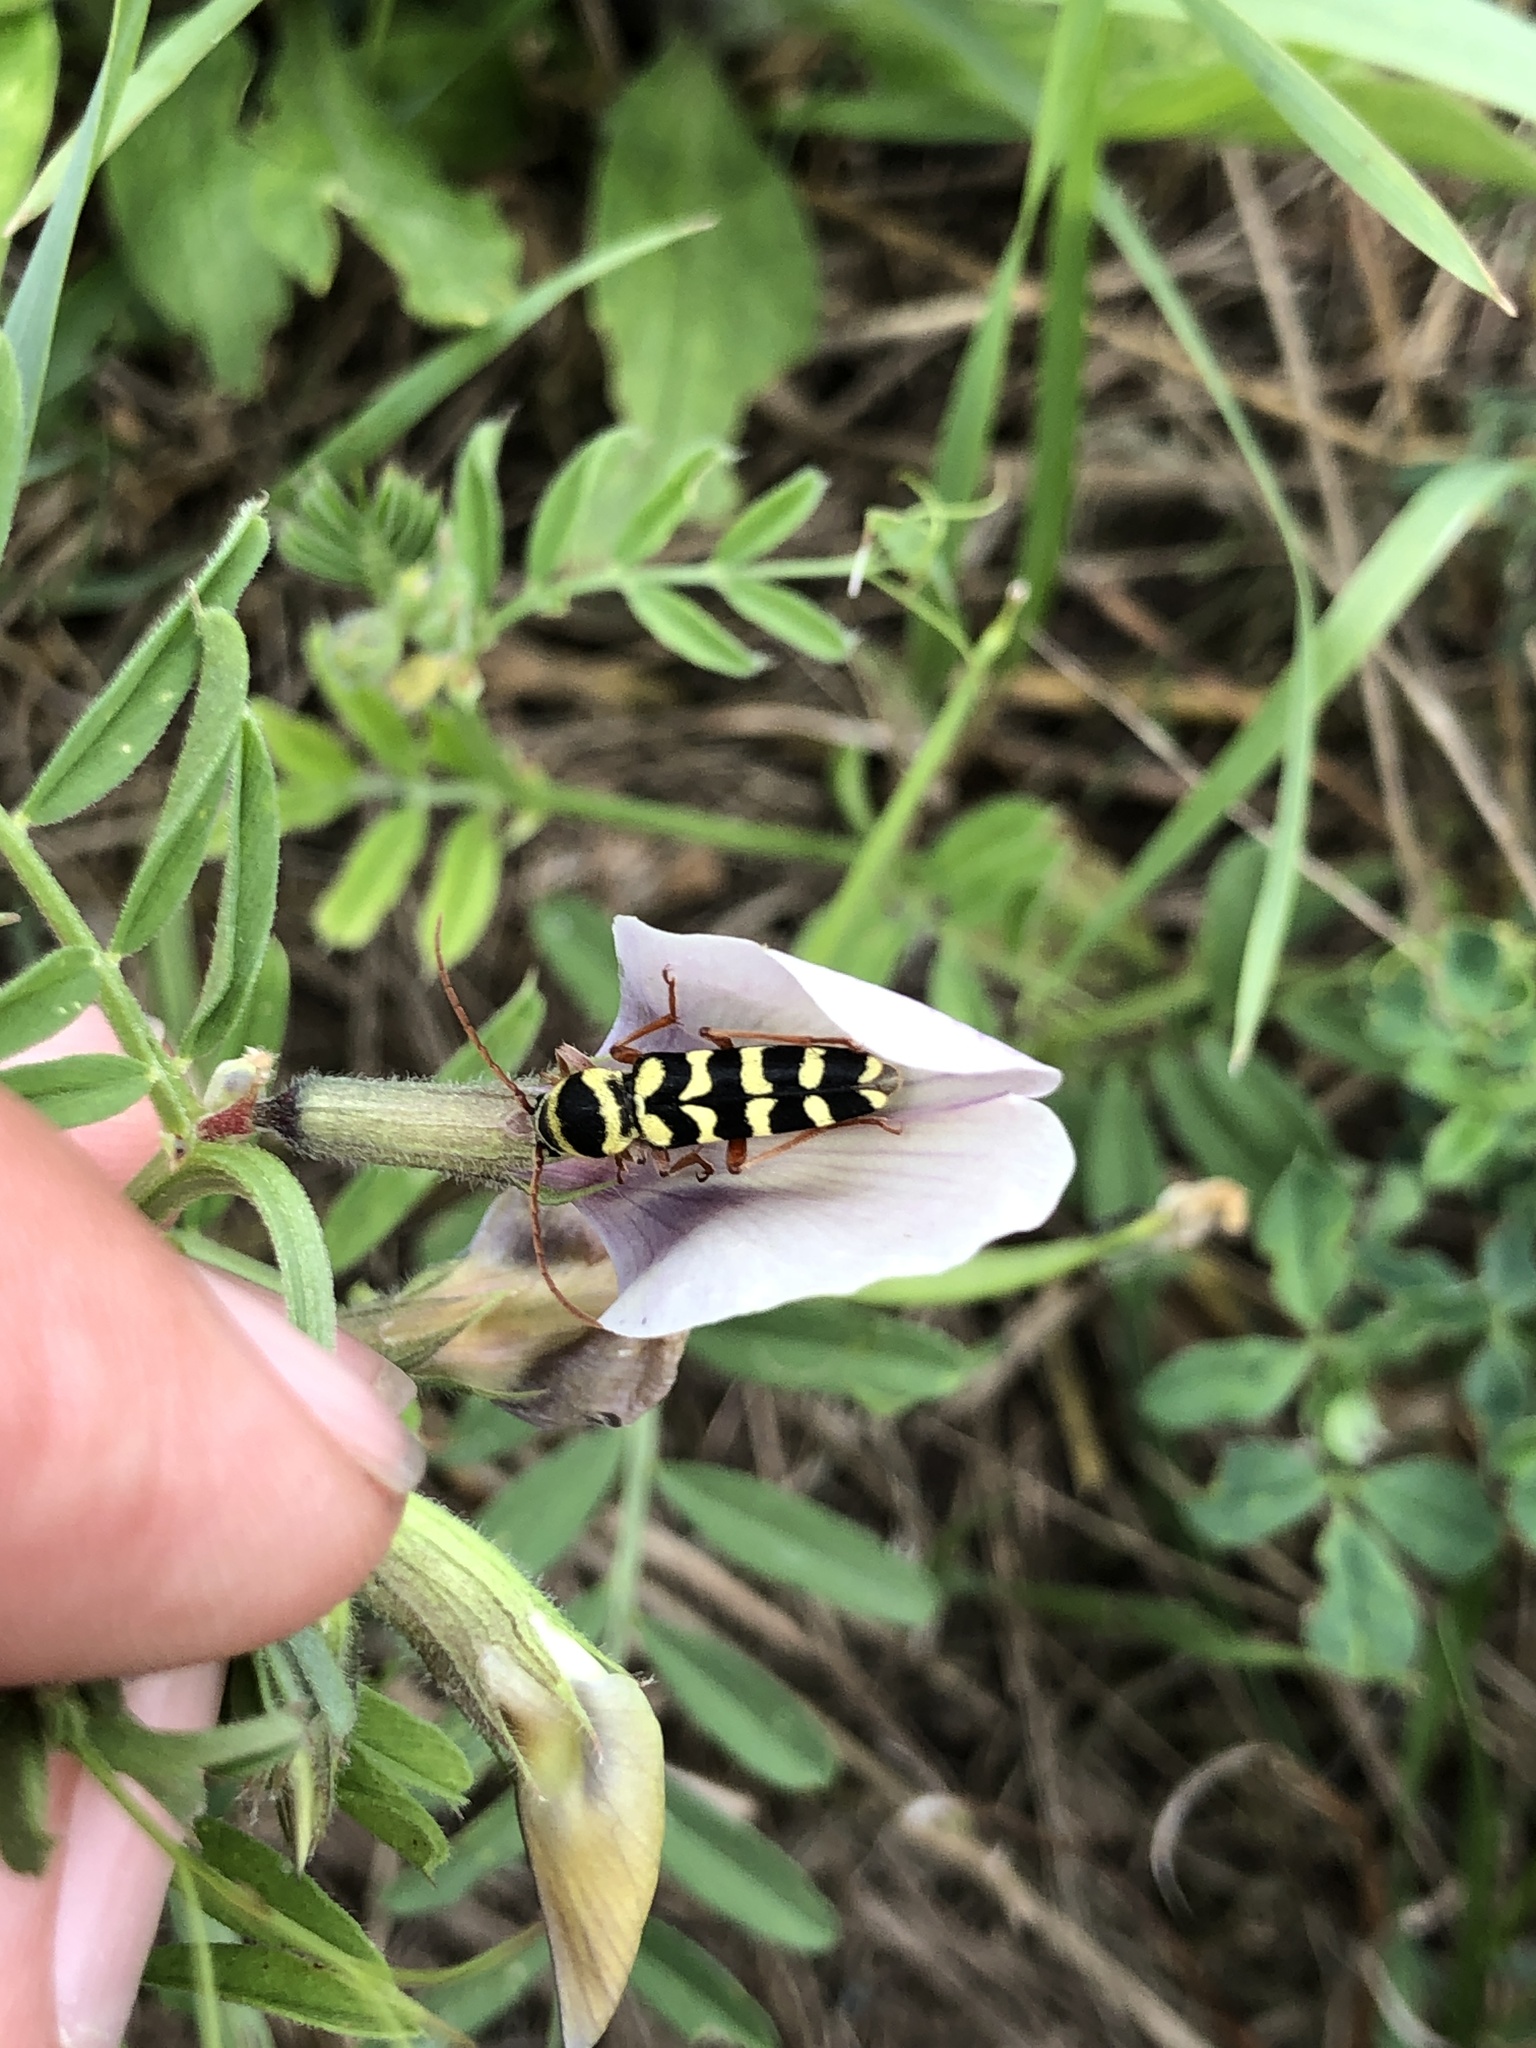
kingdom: Animalia
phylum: Arthropoda
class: Insecta
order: Coleoptera
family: Cerambycidae
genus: Plagionotus
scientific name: Plagionotus floralis
